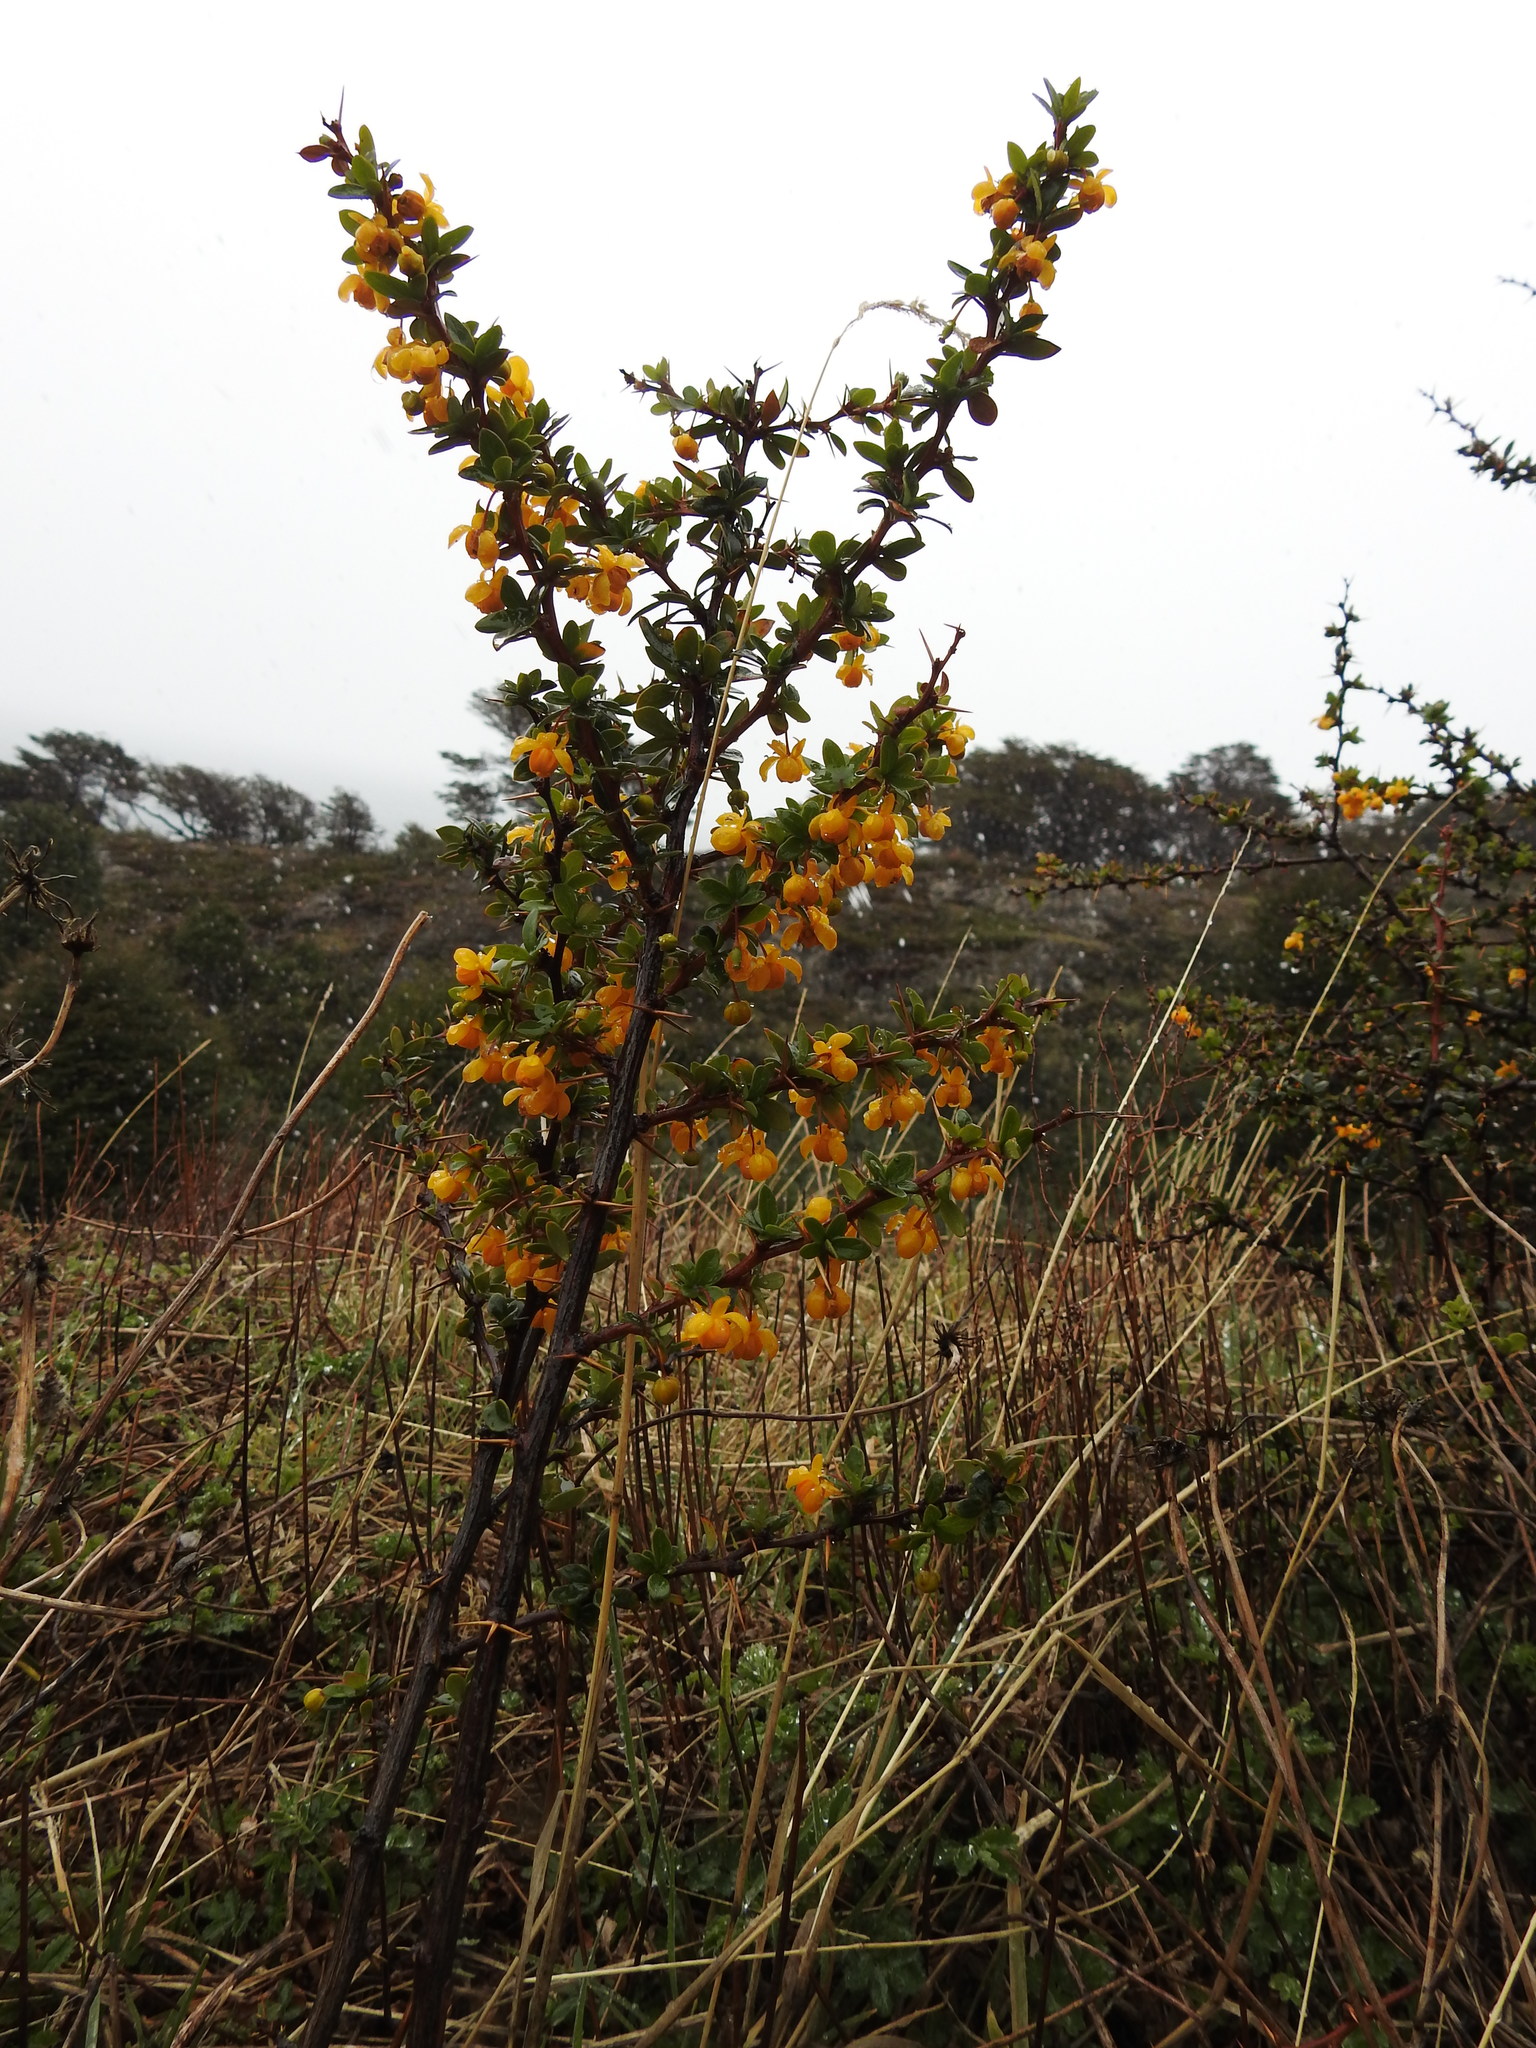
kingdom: Plantae
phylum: Tracheophyta
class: Magnoliopsida
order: Ranunculales
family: Berberidaceae
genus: Berberis
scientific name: Berberis microphylla
